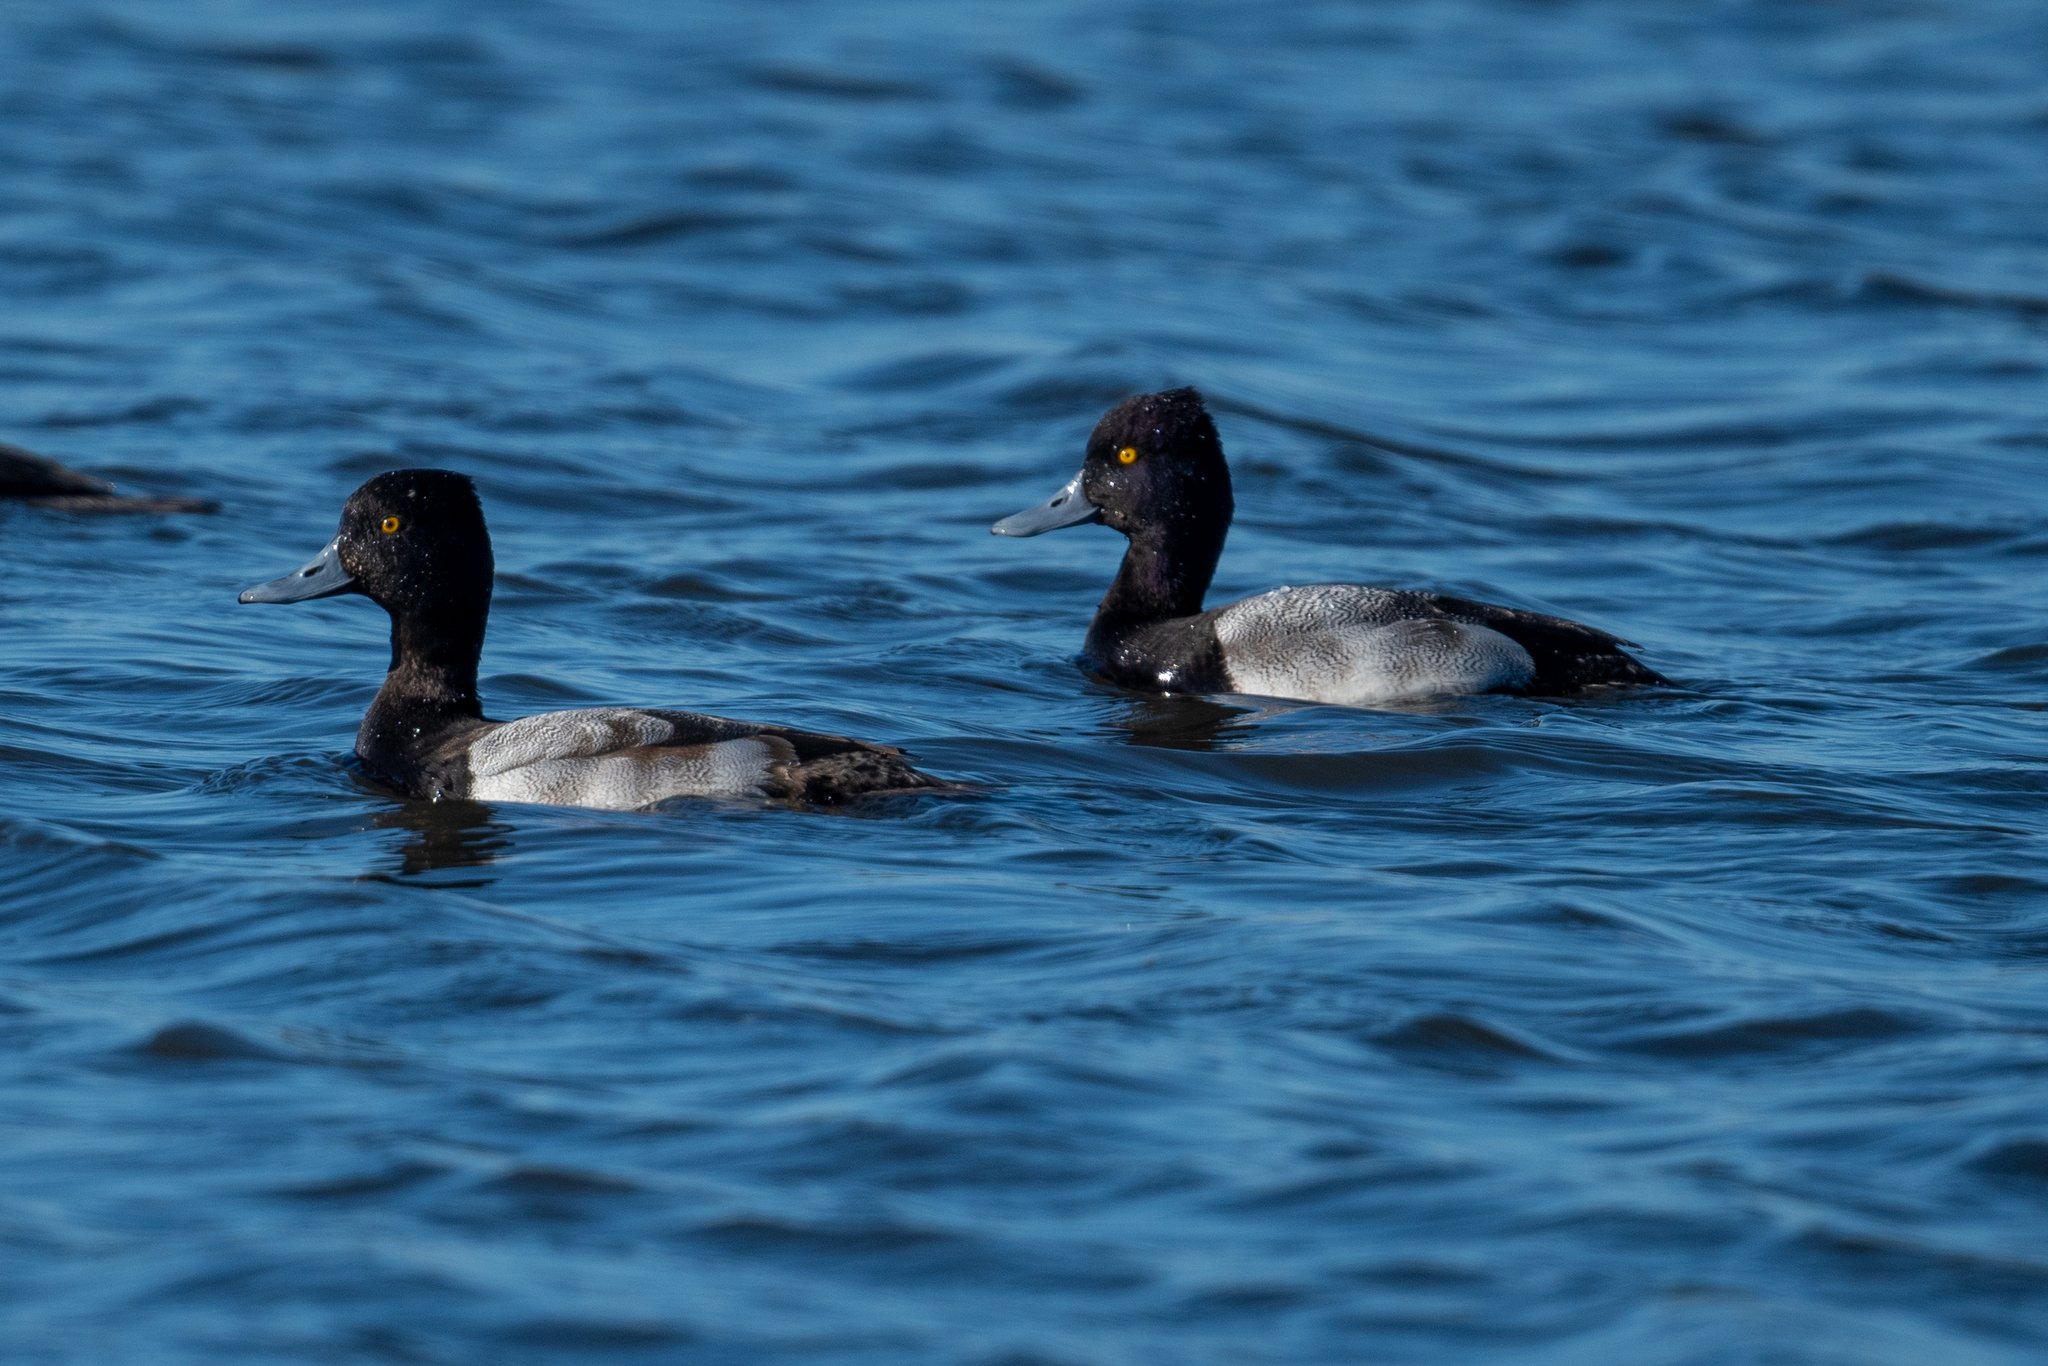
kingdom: Animalia
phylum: Chordata
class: Aves
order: Anseriformes
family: Anatidae
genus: Aythya
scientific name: Aythya affinis
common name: Lesser scaup
